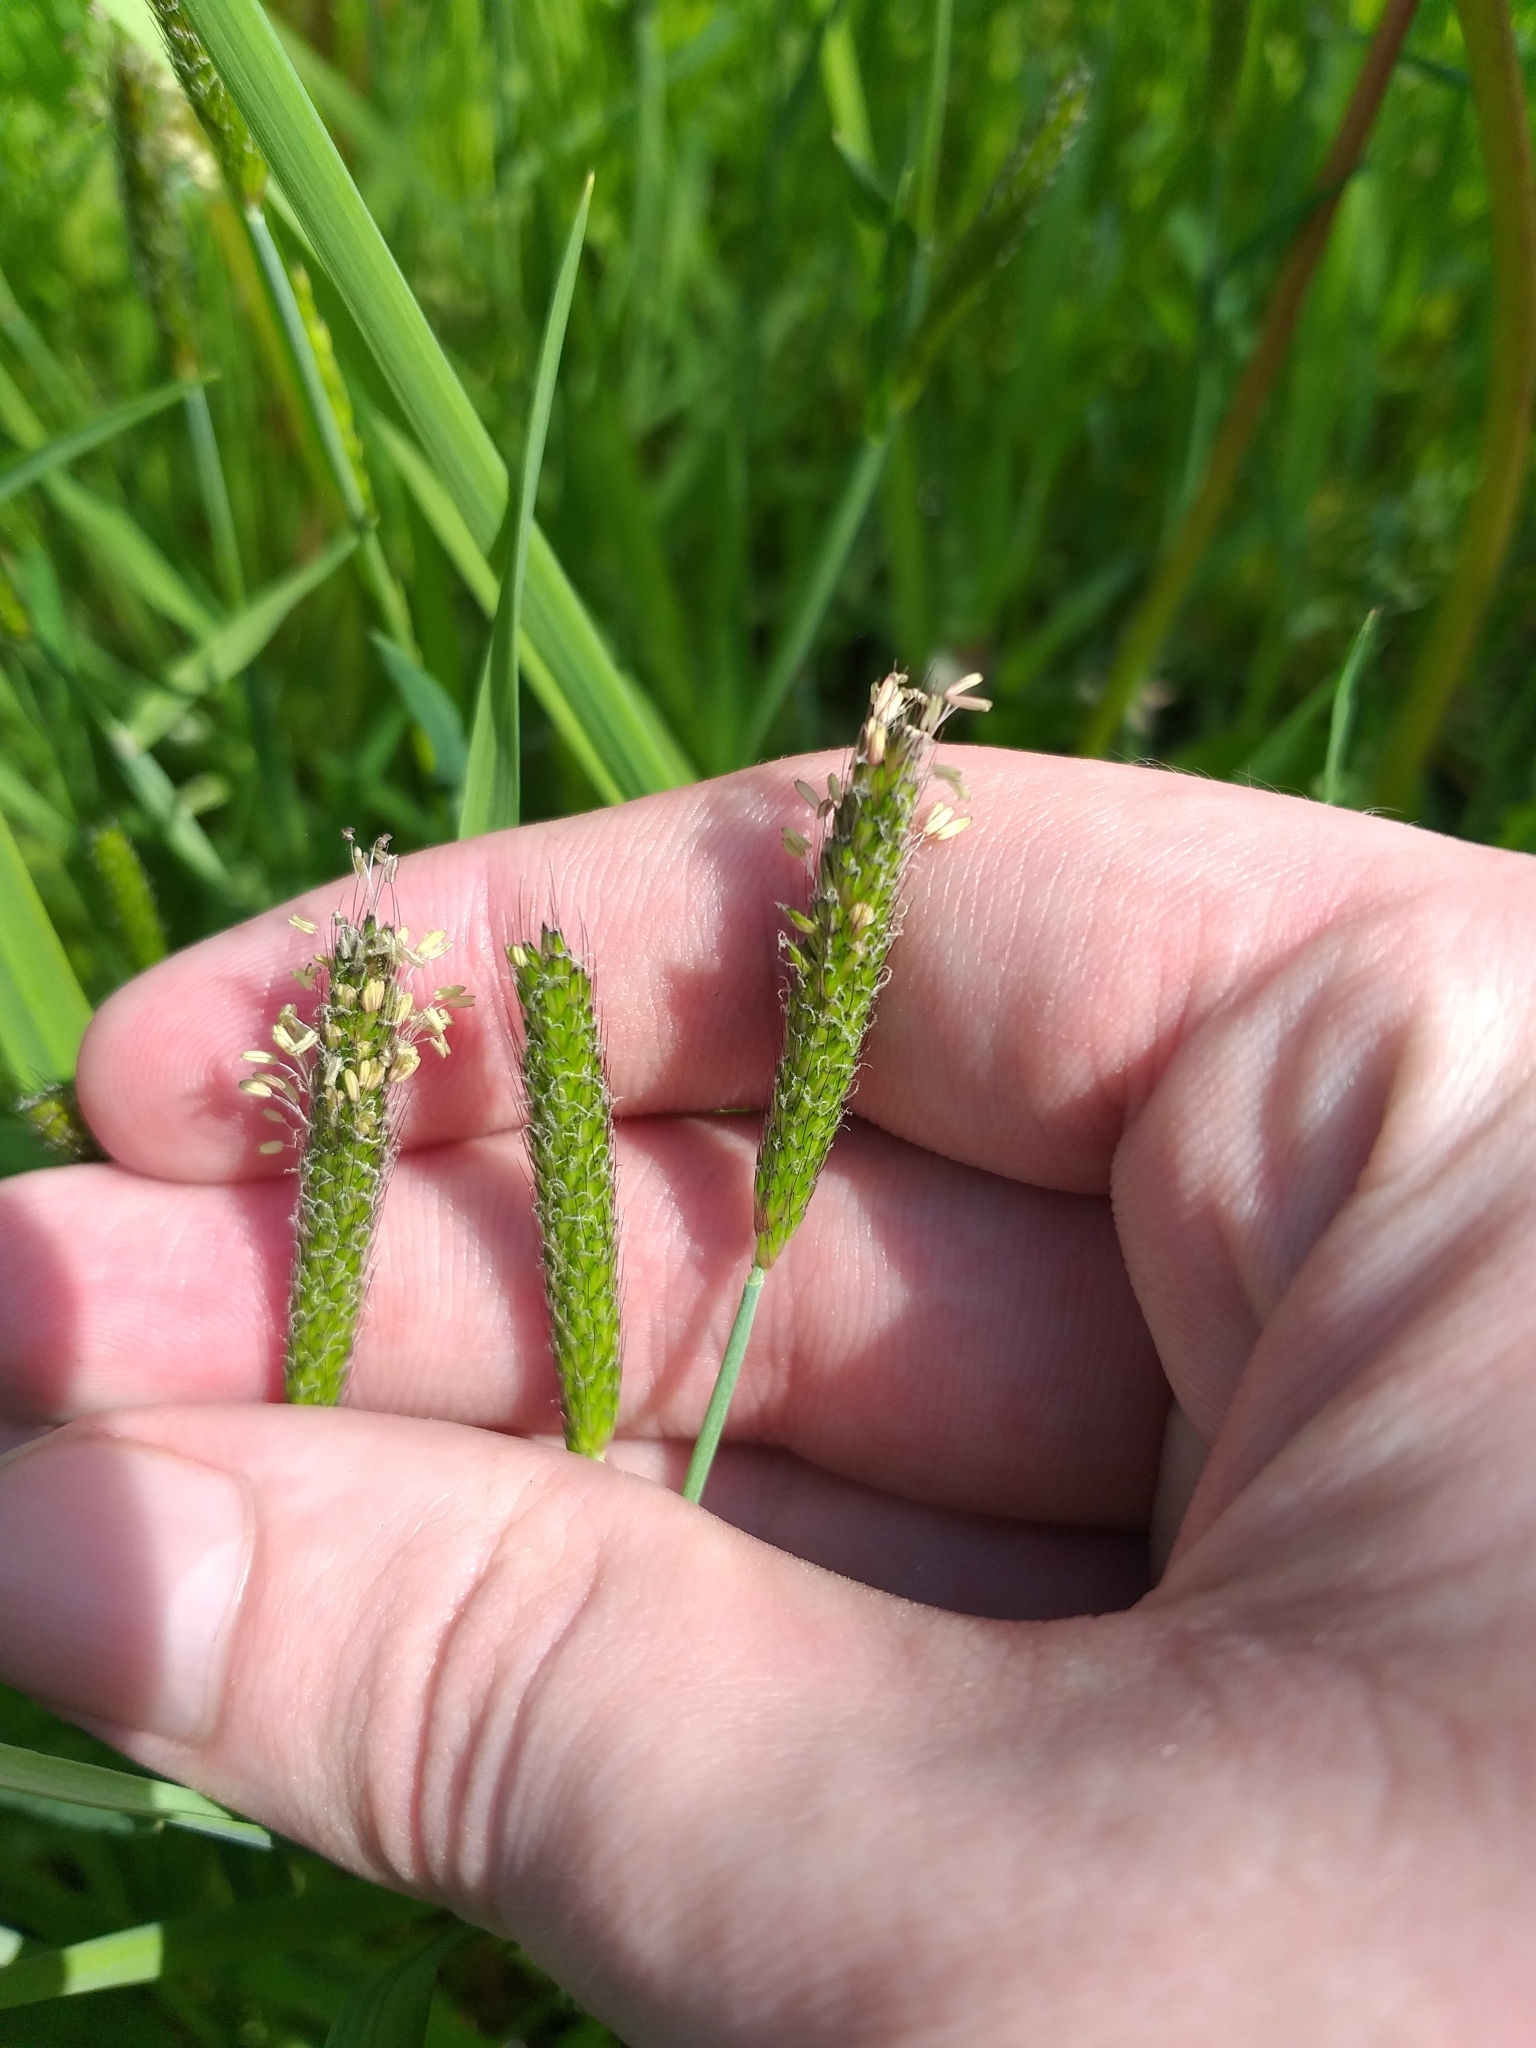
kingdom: Plantae
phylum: Tracheophyta
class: Liliopsida
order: Poales
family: Poaceae
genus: Alopecurus
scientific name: Alopecurus geniculatus
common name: Water foxtail
